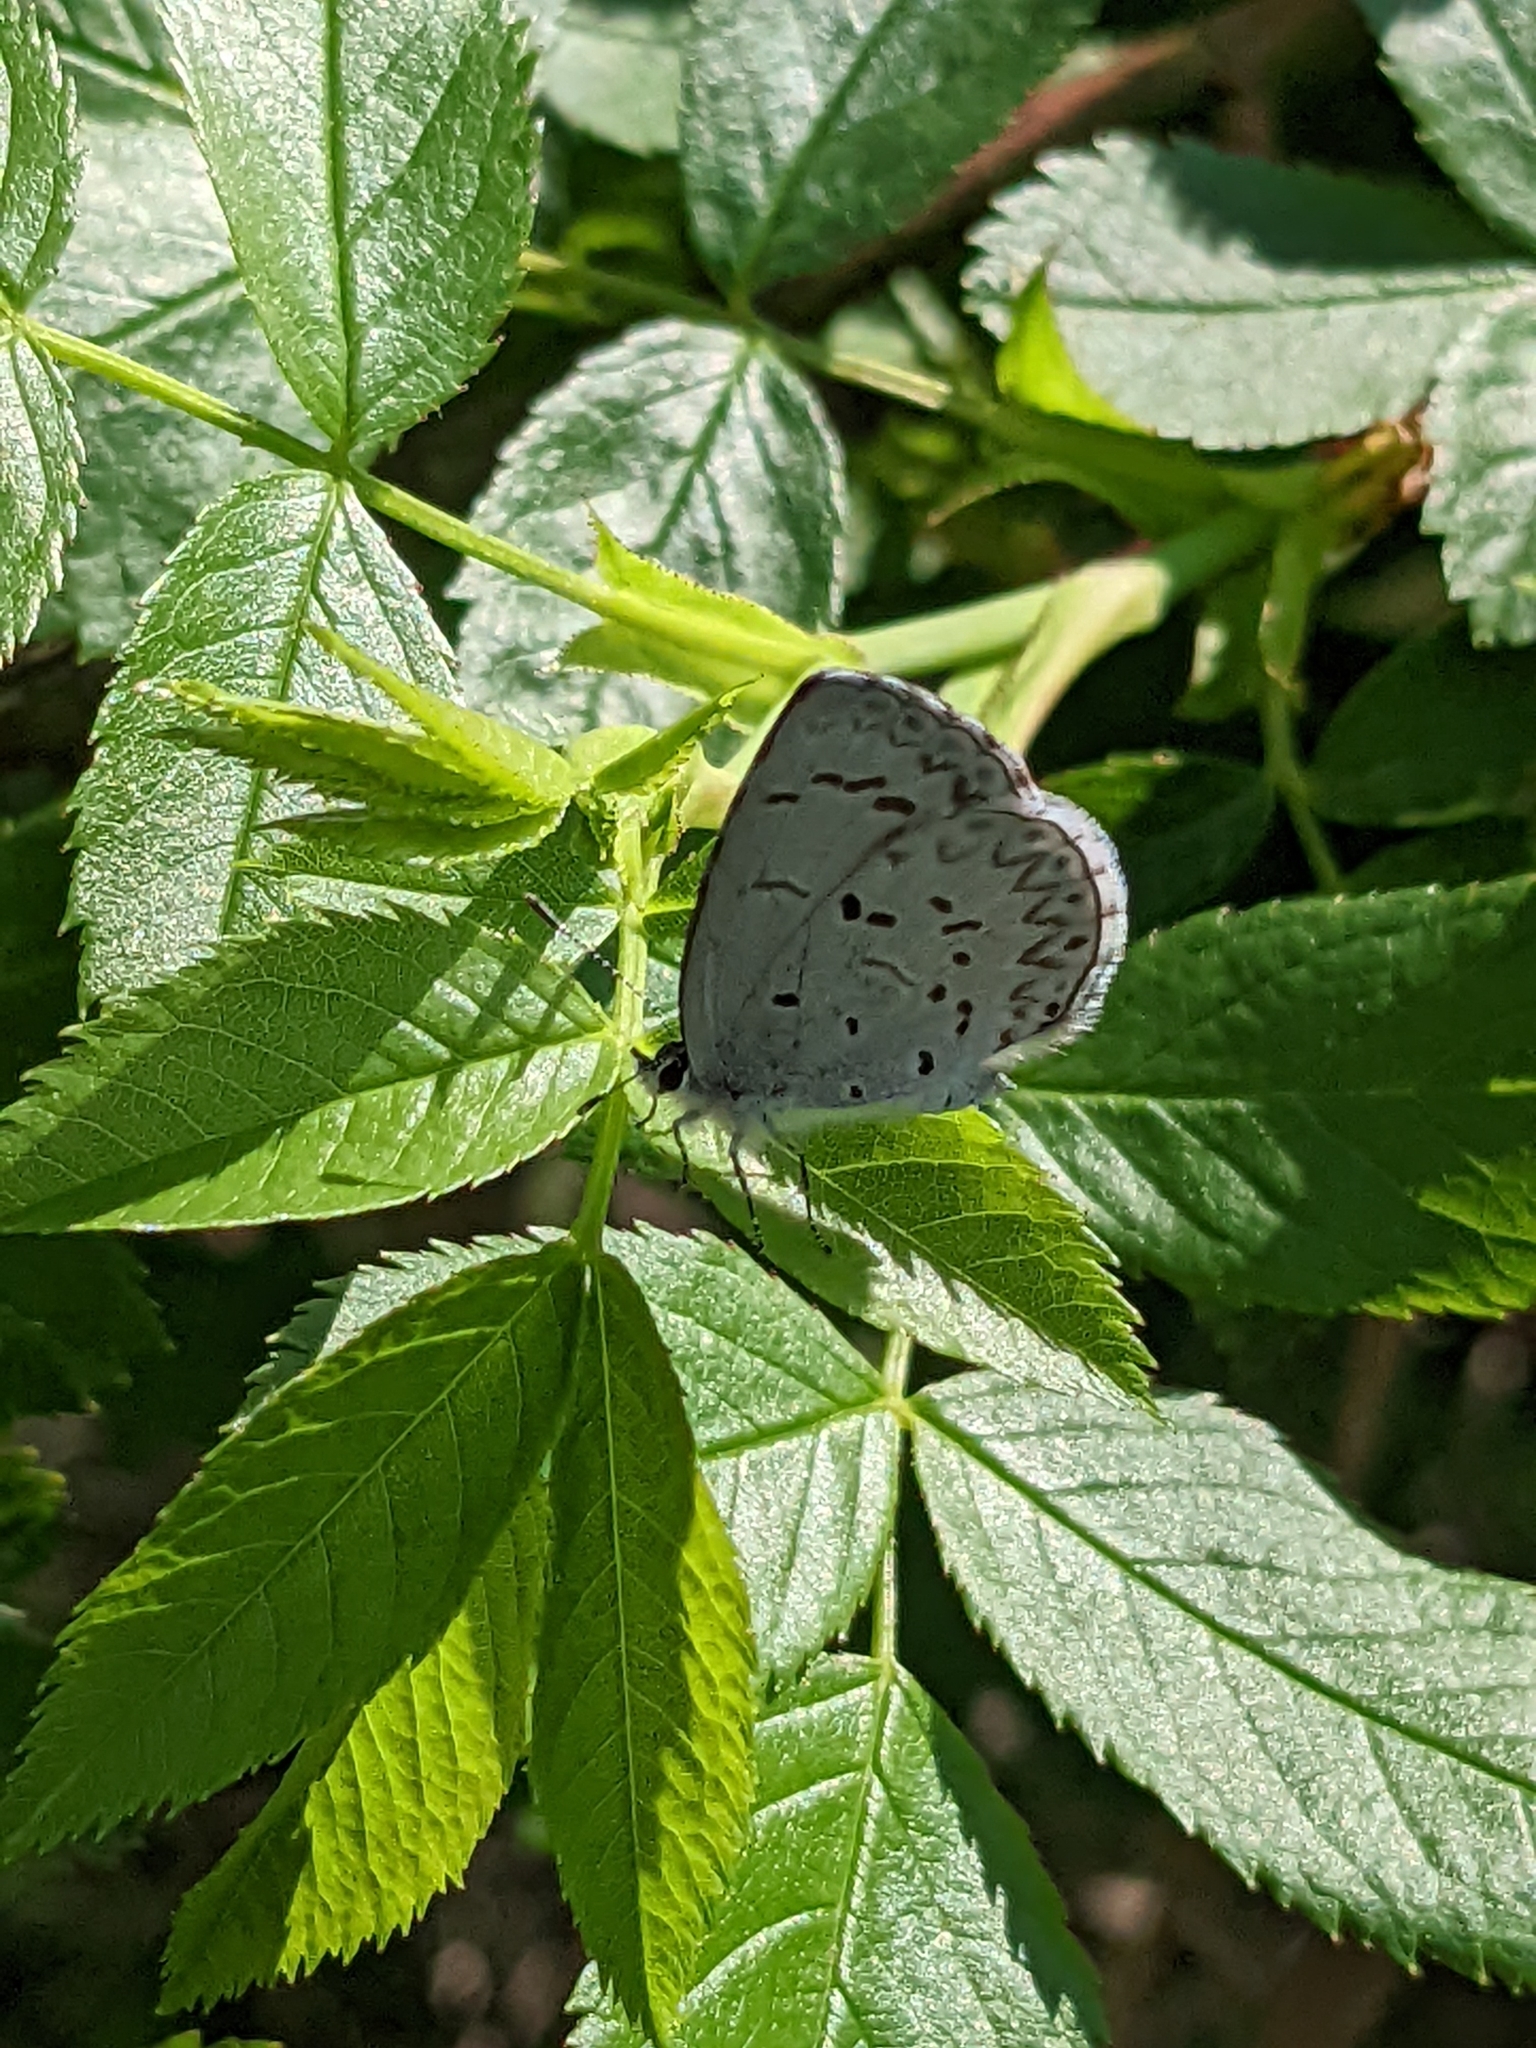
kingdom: Animalia
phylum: Arthropoda
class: Insecta
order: Lepidoptera
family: Lycaenidae
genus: Celastrina
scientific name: Celastrina lucia
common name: Lucia azure
